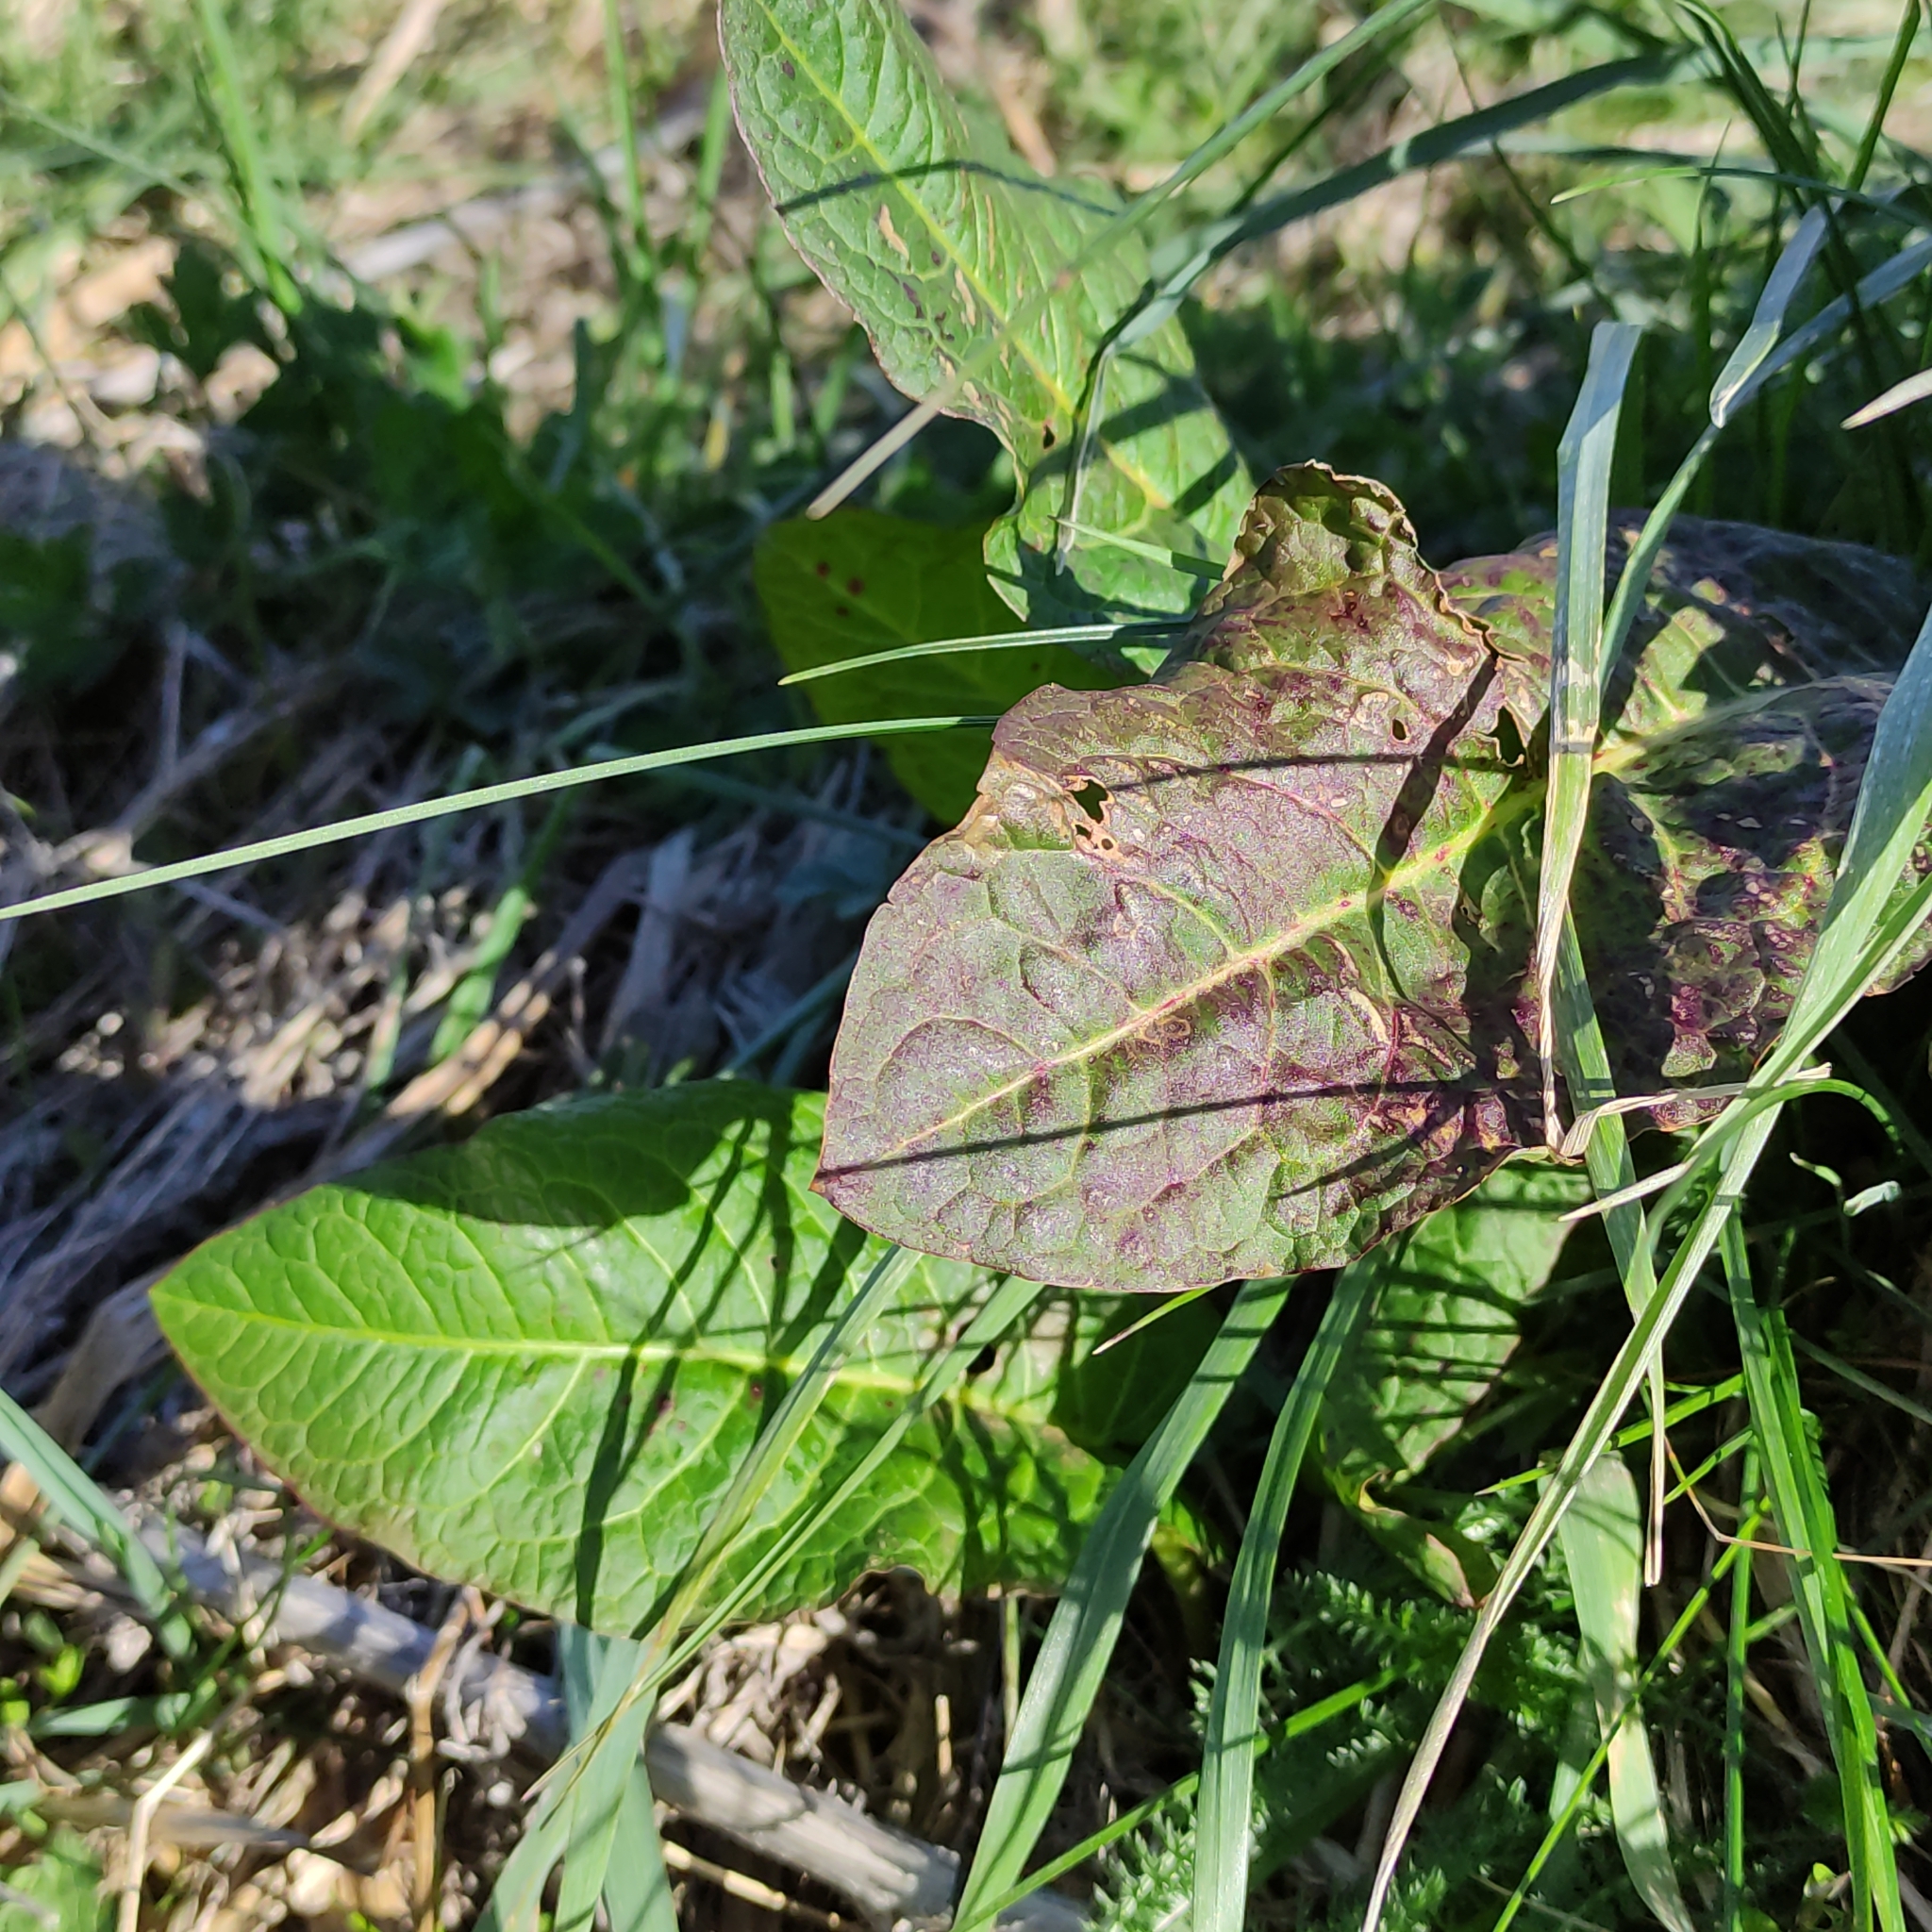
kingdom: Plantae
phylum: Tracheophyta
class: Magnoliopsida
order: Caryophyllales
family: Polygonaceae
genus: Rumex
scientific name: Rumex obtusifolius
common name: Bitter dock
